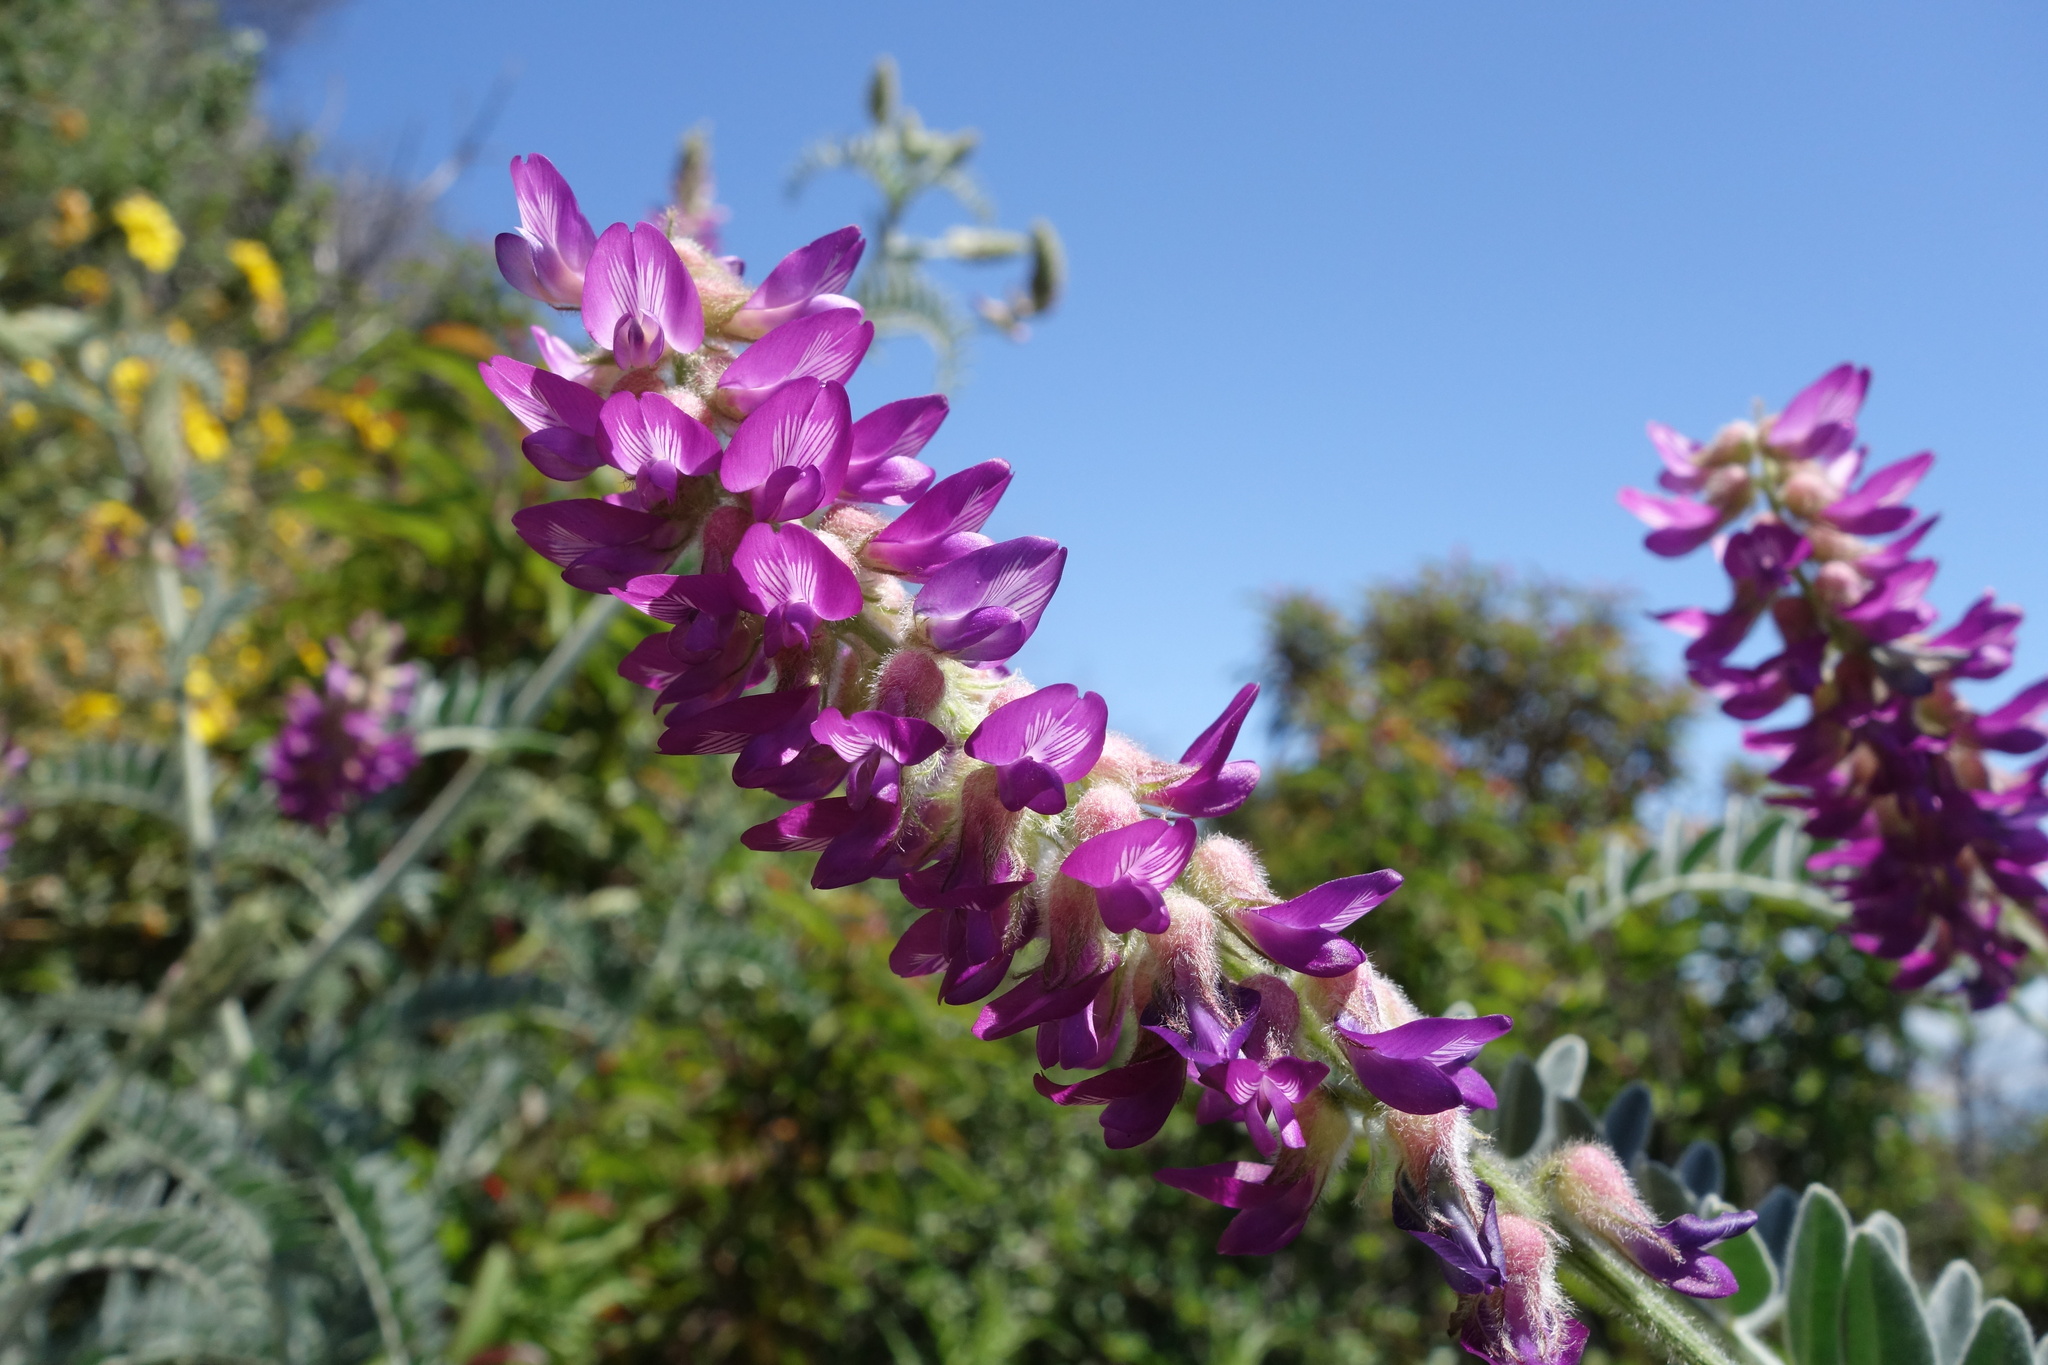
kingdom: Plantae
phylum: Tracheophyta
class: Magnoliopsida
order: Fabales
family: Fabaceae
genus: Astragalus
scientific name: Astragalus brauntonii
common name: Braunton's milk-vetch
